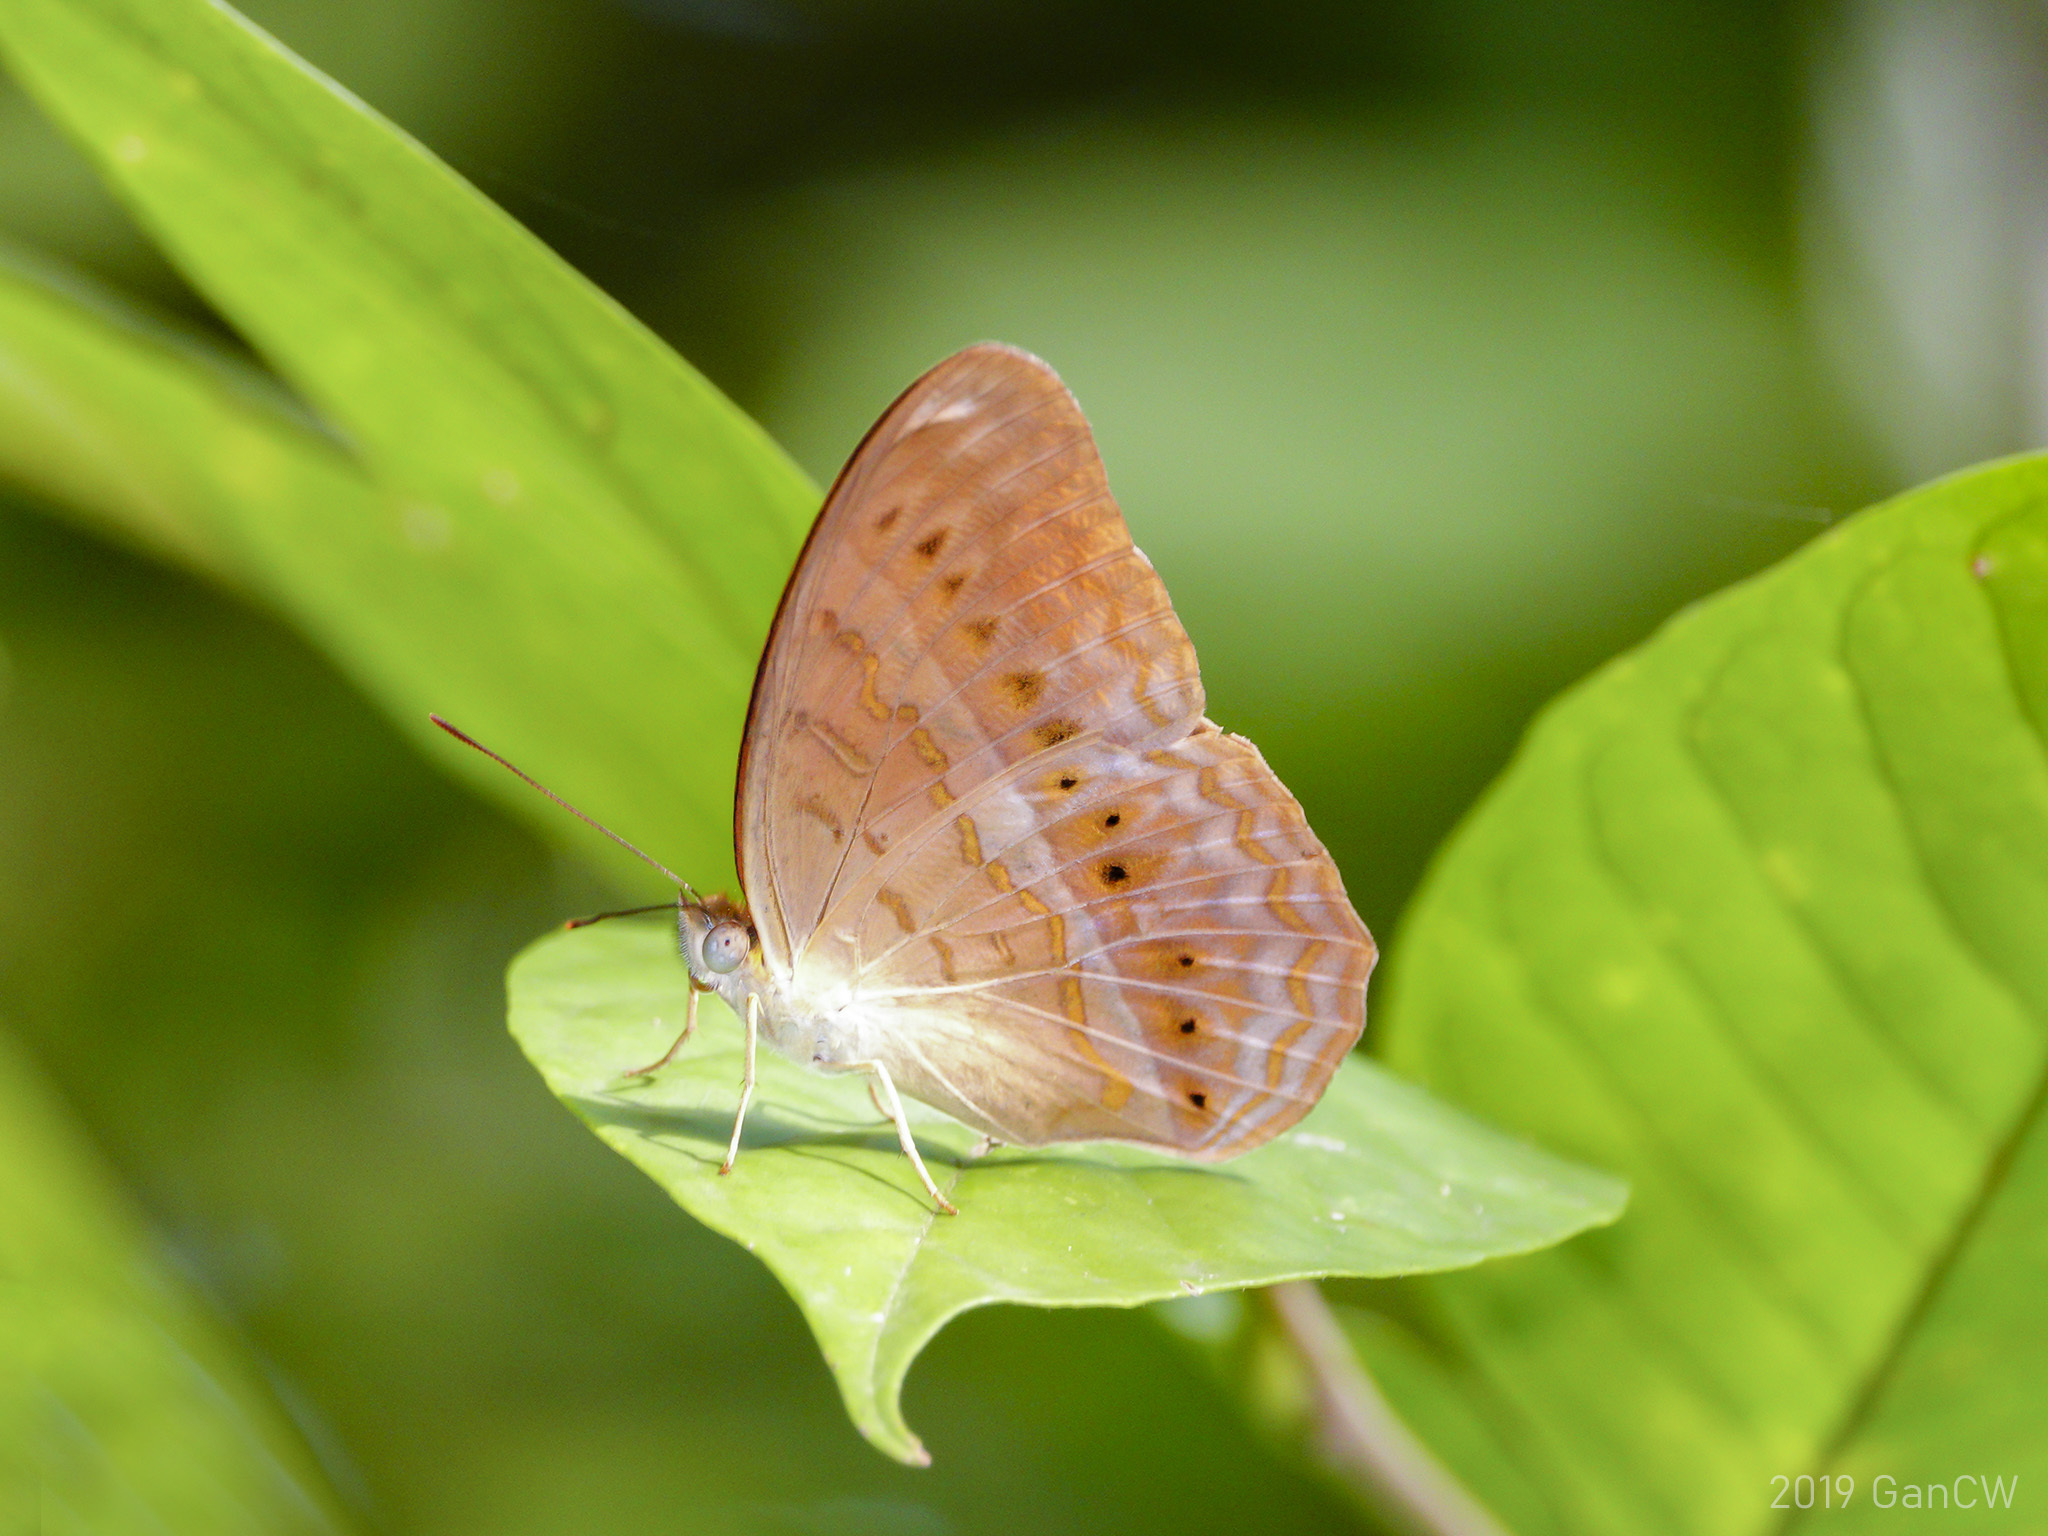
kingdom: Animalia
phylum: Arthropoda
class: Insecta
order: Lepidoptera
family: Nymphalidae
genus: Cirrochroa
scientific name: Cirrochroa tyche
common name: Common yeoman
